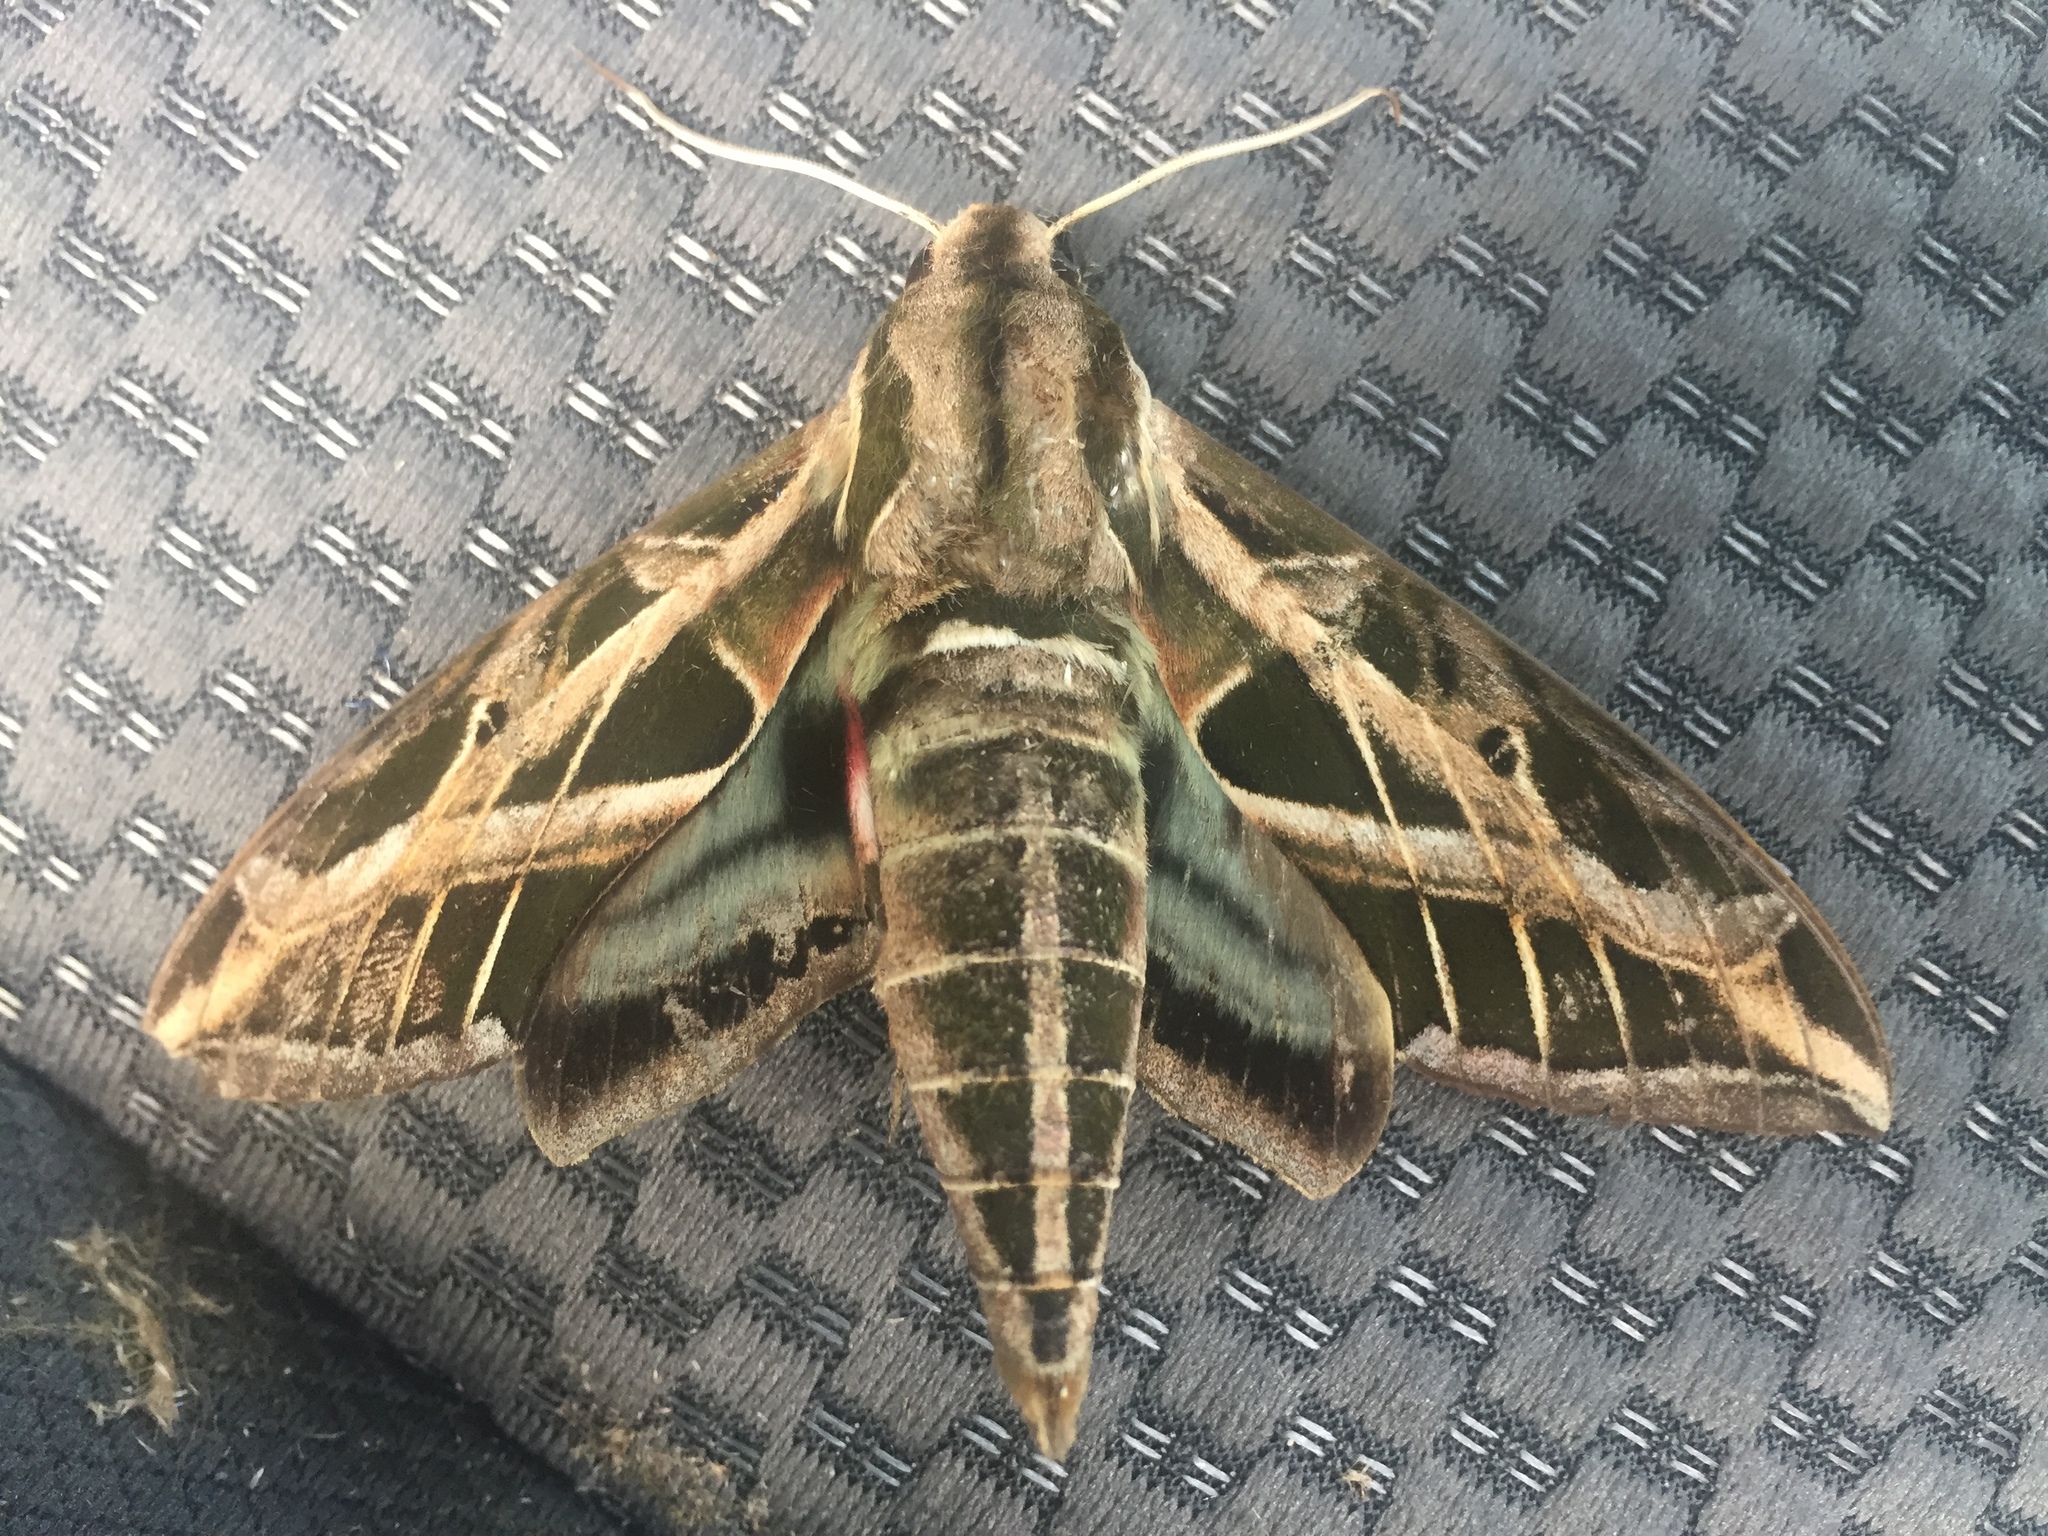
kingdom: Animalia
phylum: Arthropoda
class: Insecta
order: Lepidoptera
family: Sphingidae
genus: Eumorpha
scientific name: Eumorpha vitis
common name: Vine sphinx
